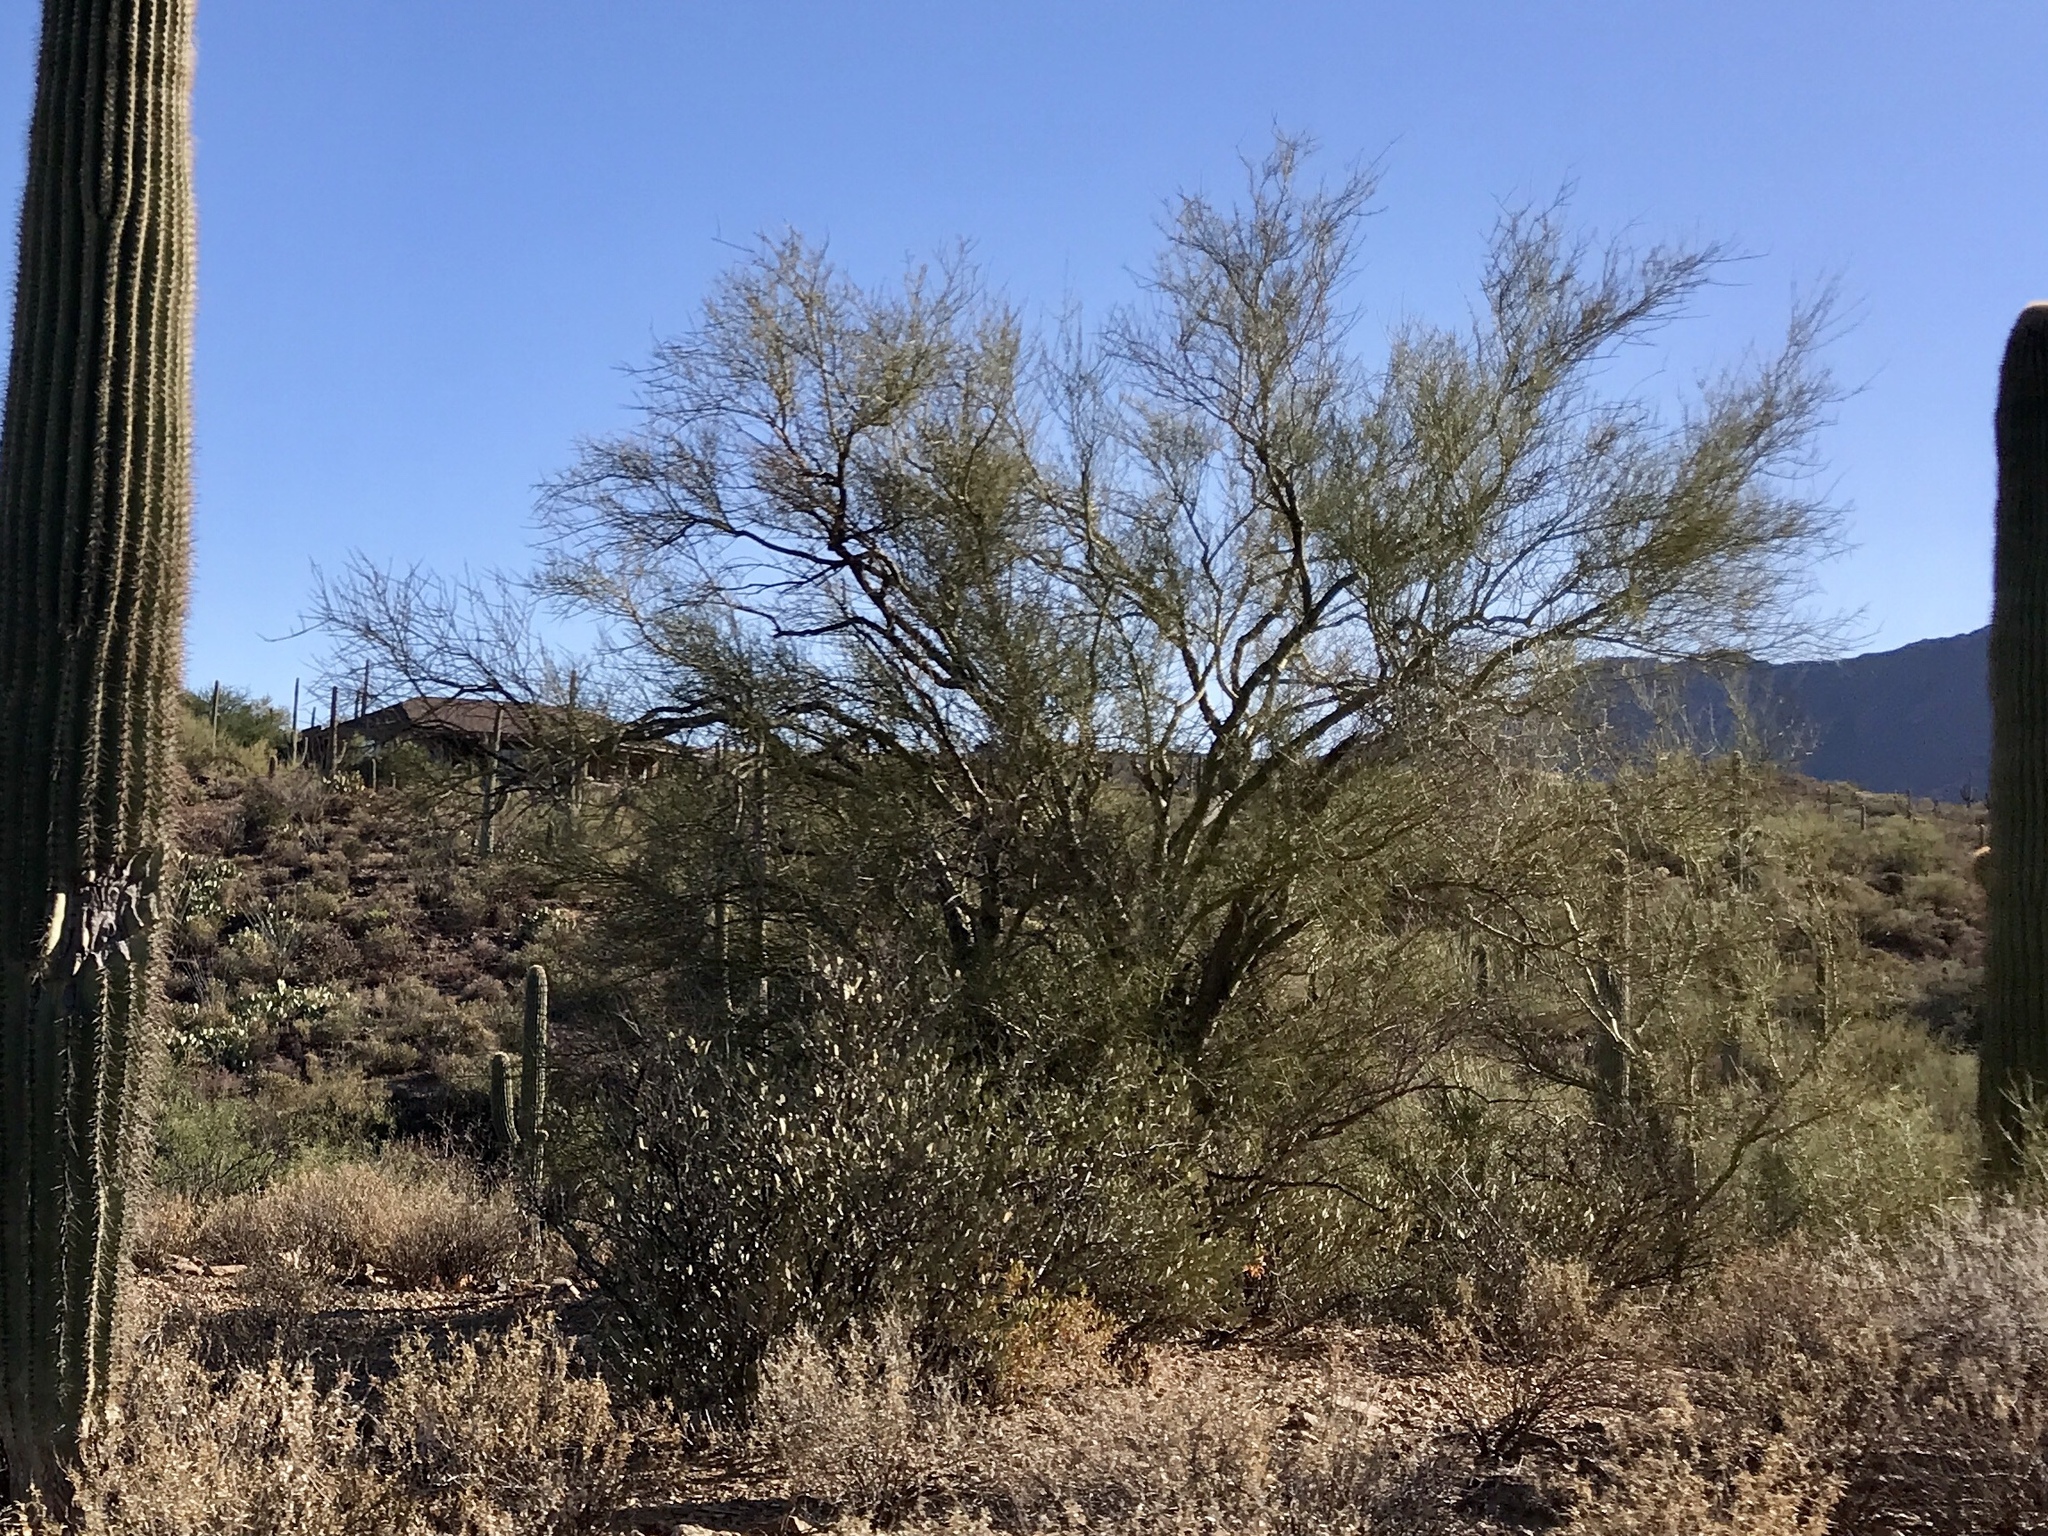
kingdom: Plantae
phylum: Tracheophyta
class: Magnoliopsida
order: Fabales
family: Fabaceae
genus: Parkinsonia
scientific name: Parkinsonia microphylla
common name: Yellow paloverde
